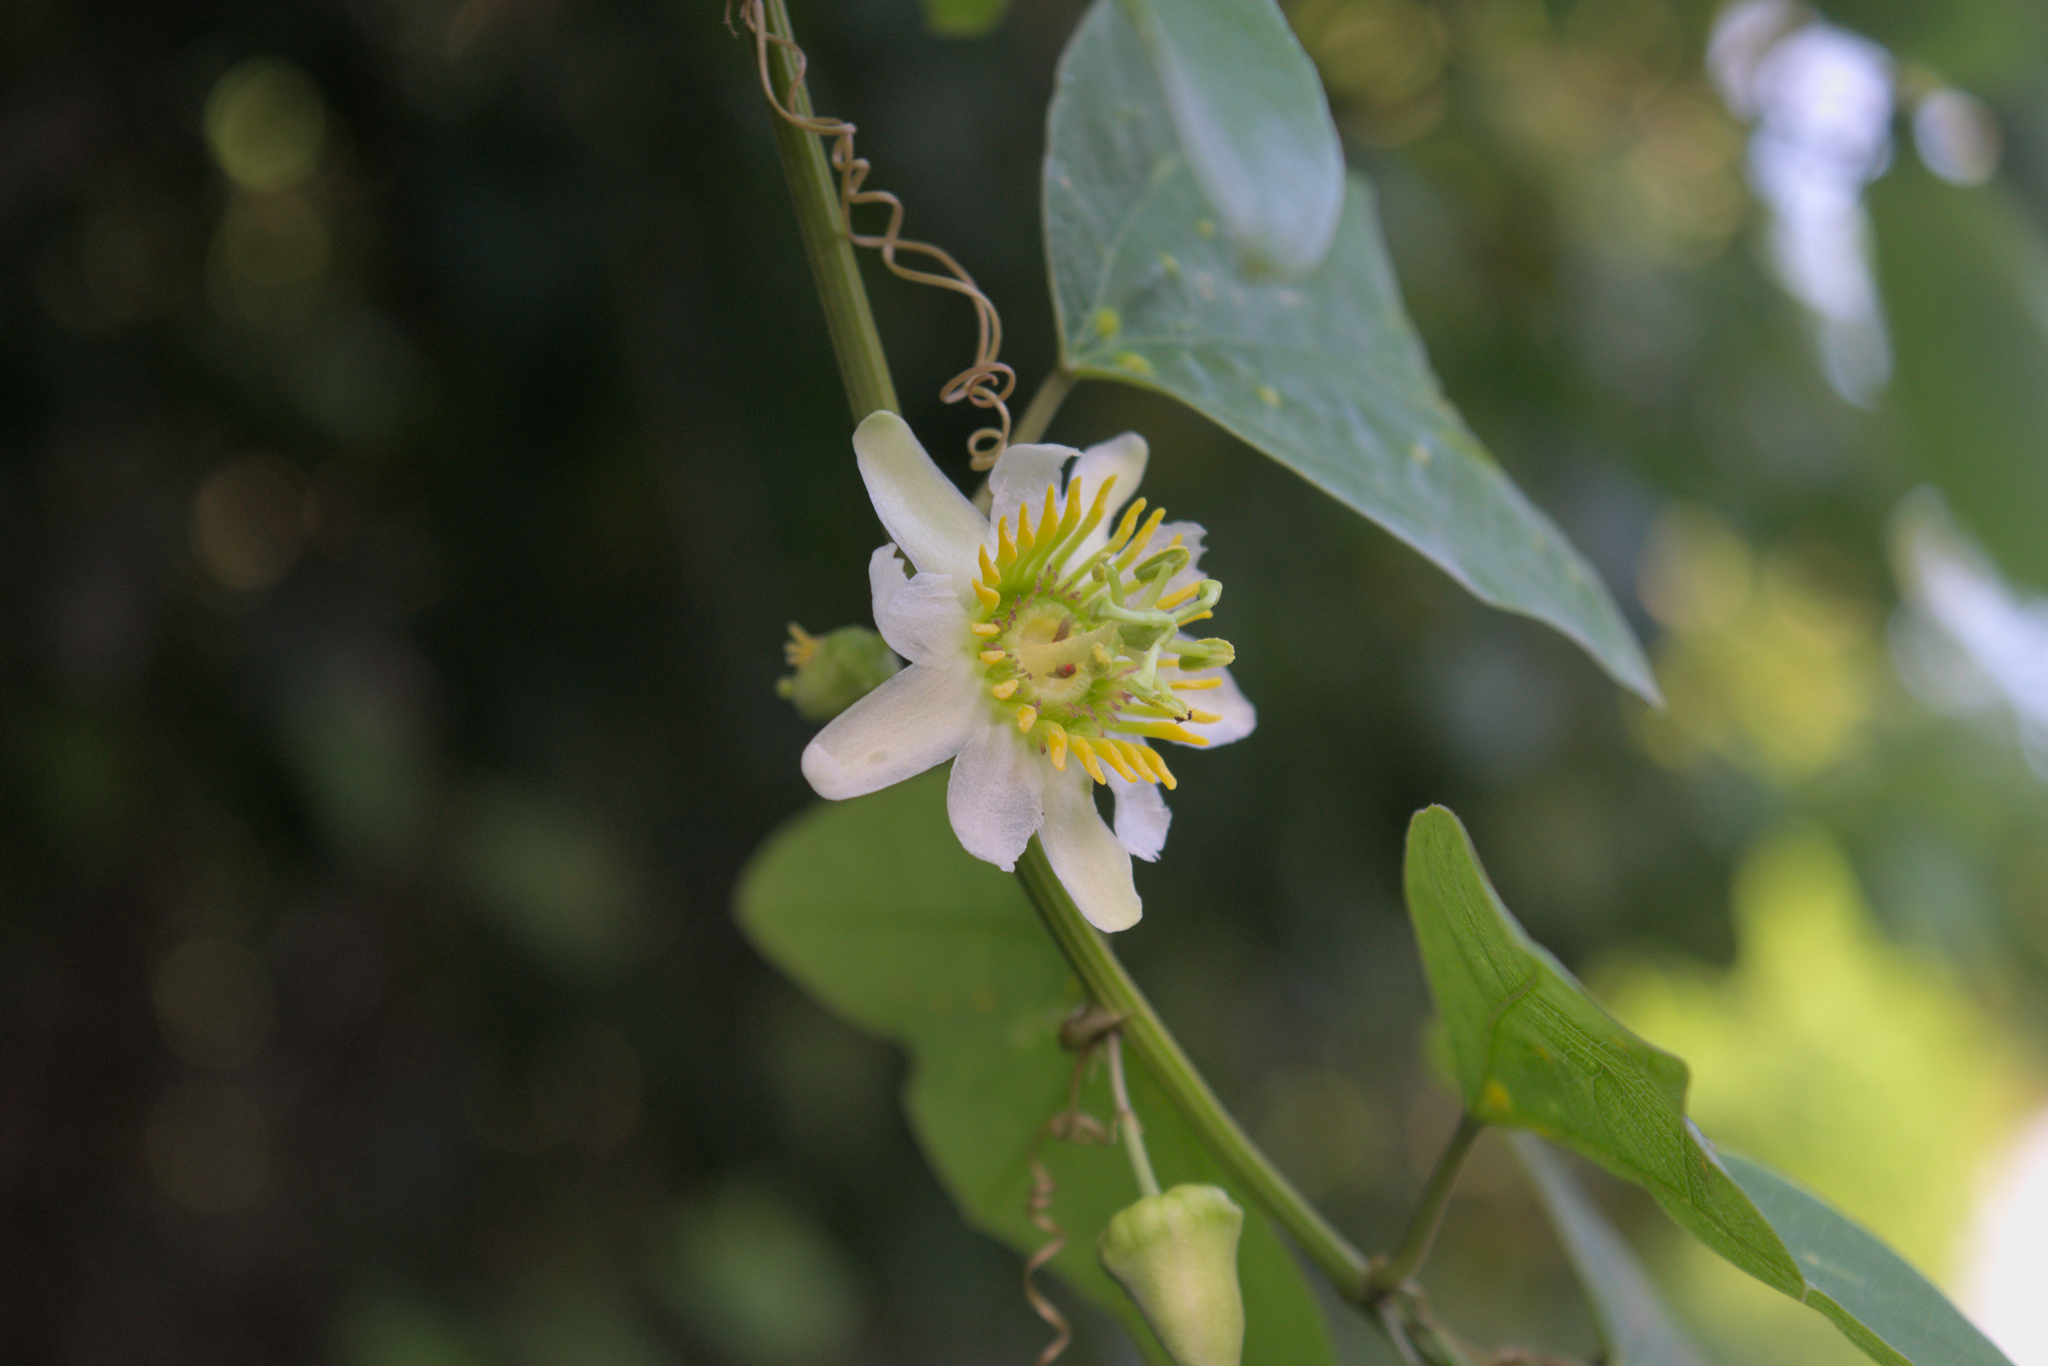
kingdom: Plantae
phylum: Tracheophyta
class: Magnoliopsida
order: Malpighiales
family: Passifloraceae
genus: Passiflora
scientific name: Passiflora biflora
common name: Twoflower passionflower
